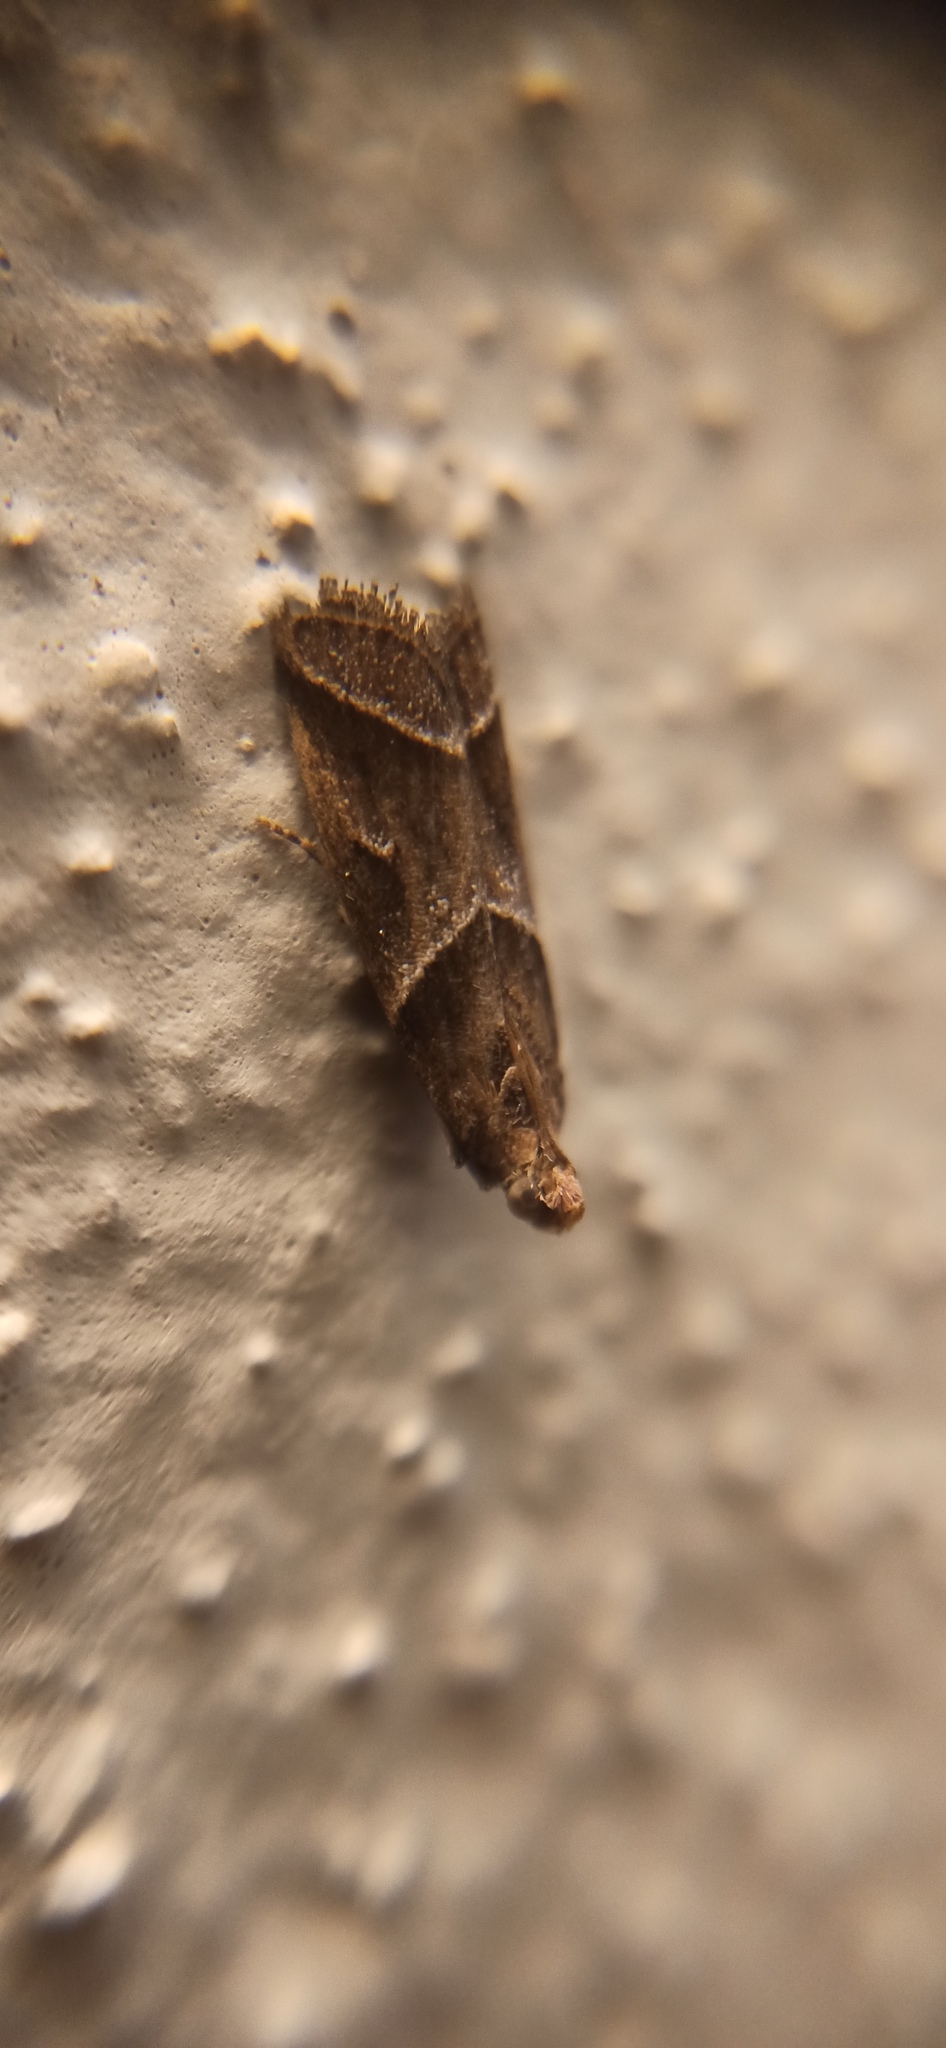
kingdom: Animalia
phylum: Arthropoda
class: Insecta
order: Lepidoptera
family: Pyralidae
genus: Nyctegretis
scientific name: Nyctegretis lineana
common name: Agate knot-horn
